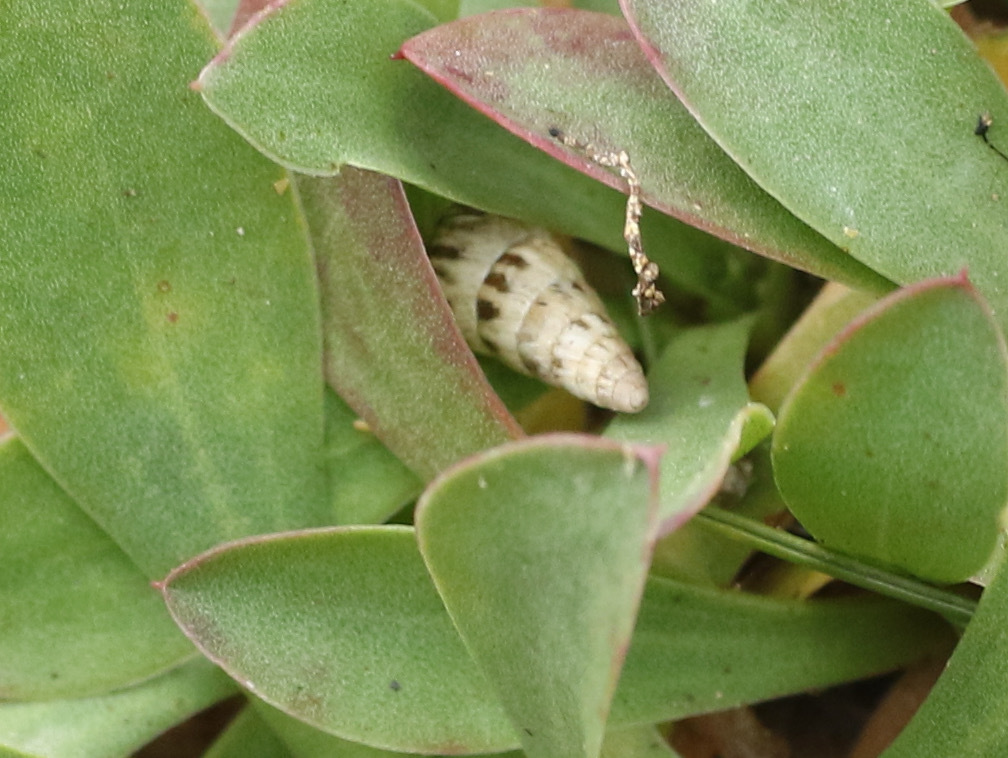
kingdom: Animalia
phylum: Mollusca
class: Gastropoda
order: Stylommatophora
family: Geomitridae
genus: Cochlicella
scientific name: Cochlicella acuta
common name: Pointed snail
